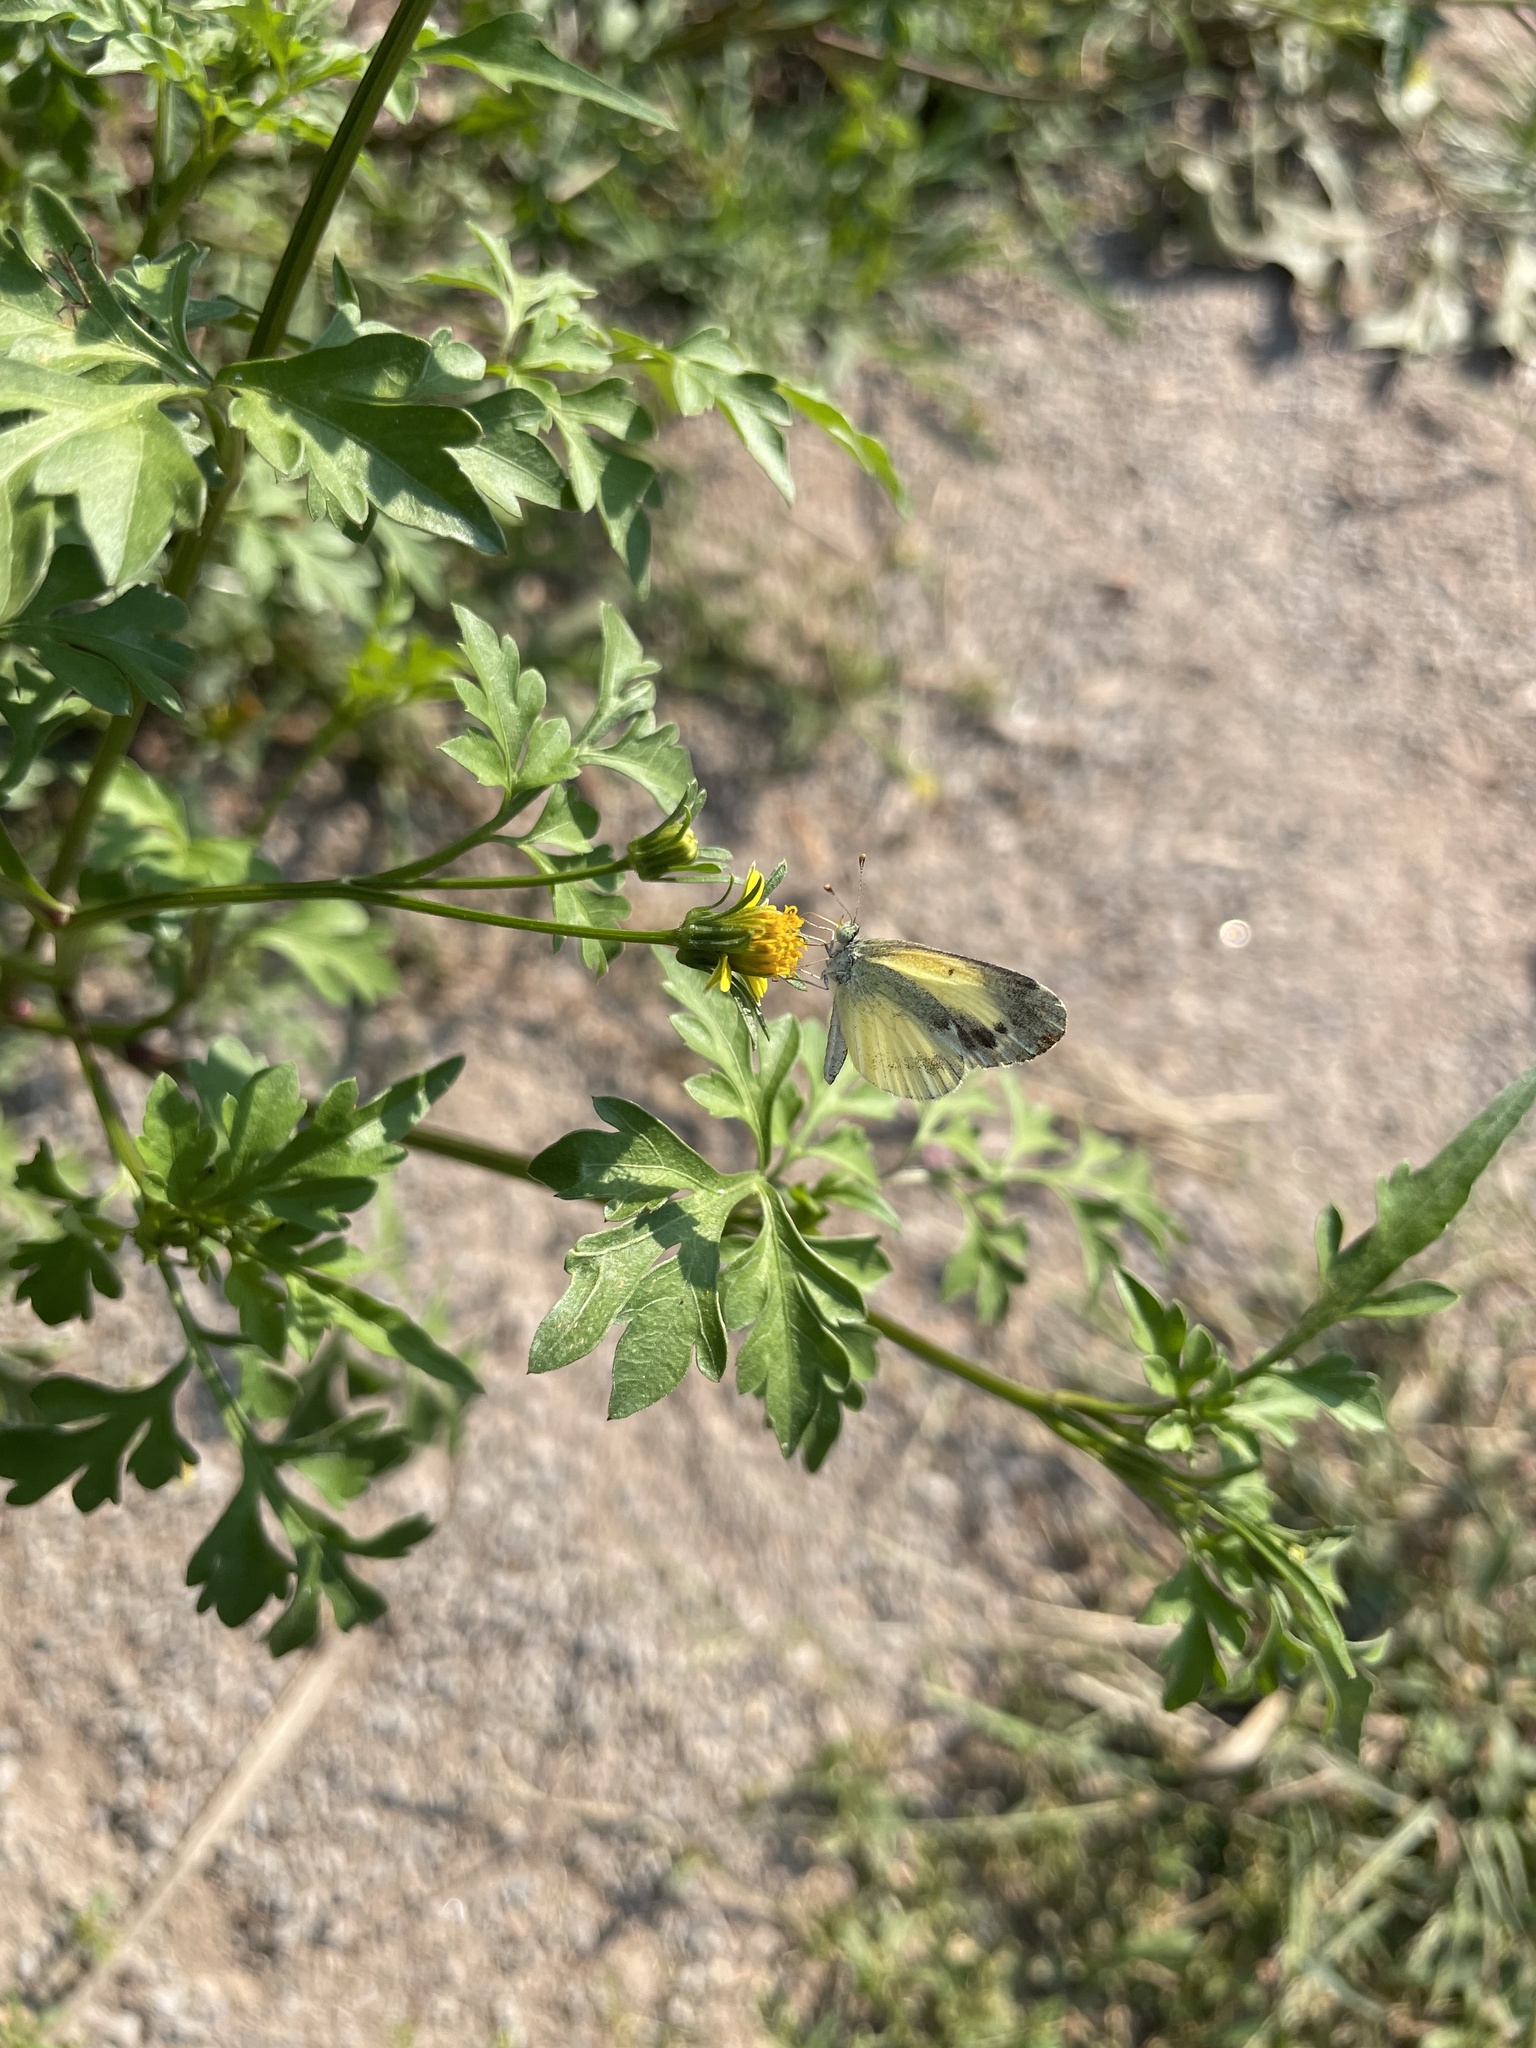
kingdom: Animalia
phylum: Arthropoda
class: Insecta
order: Lepidoptera
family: Pieridae
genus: Nathalis
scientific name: Nathalis iole
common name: Dainty sulphur
